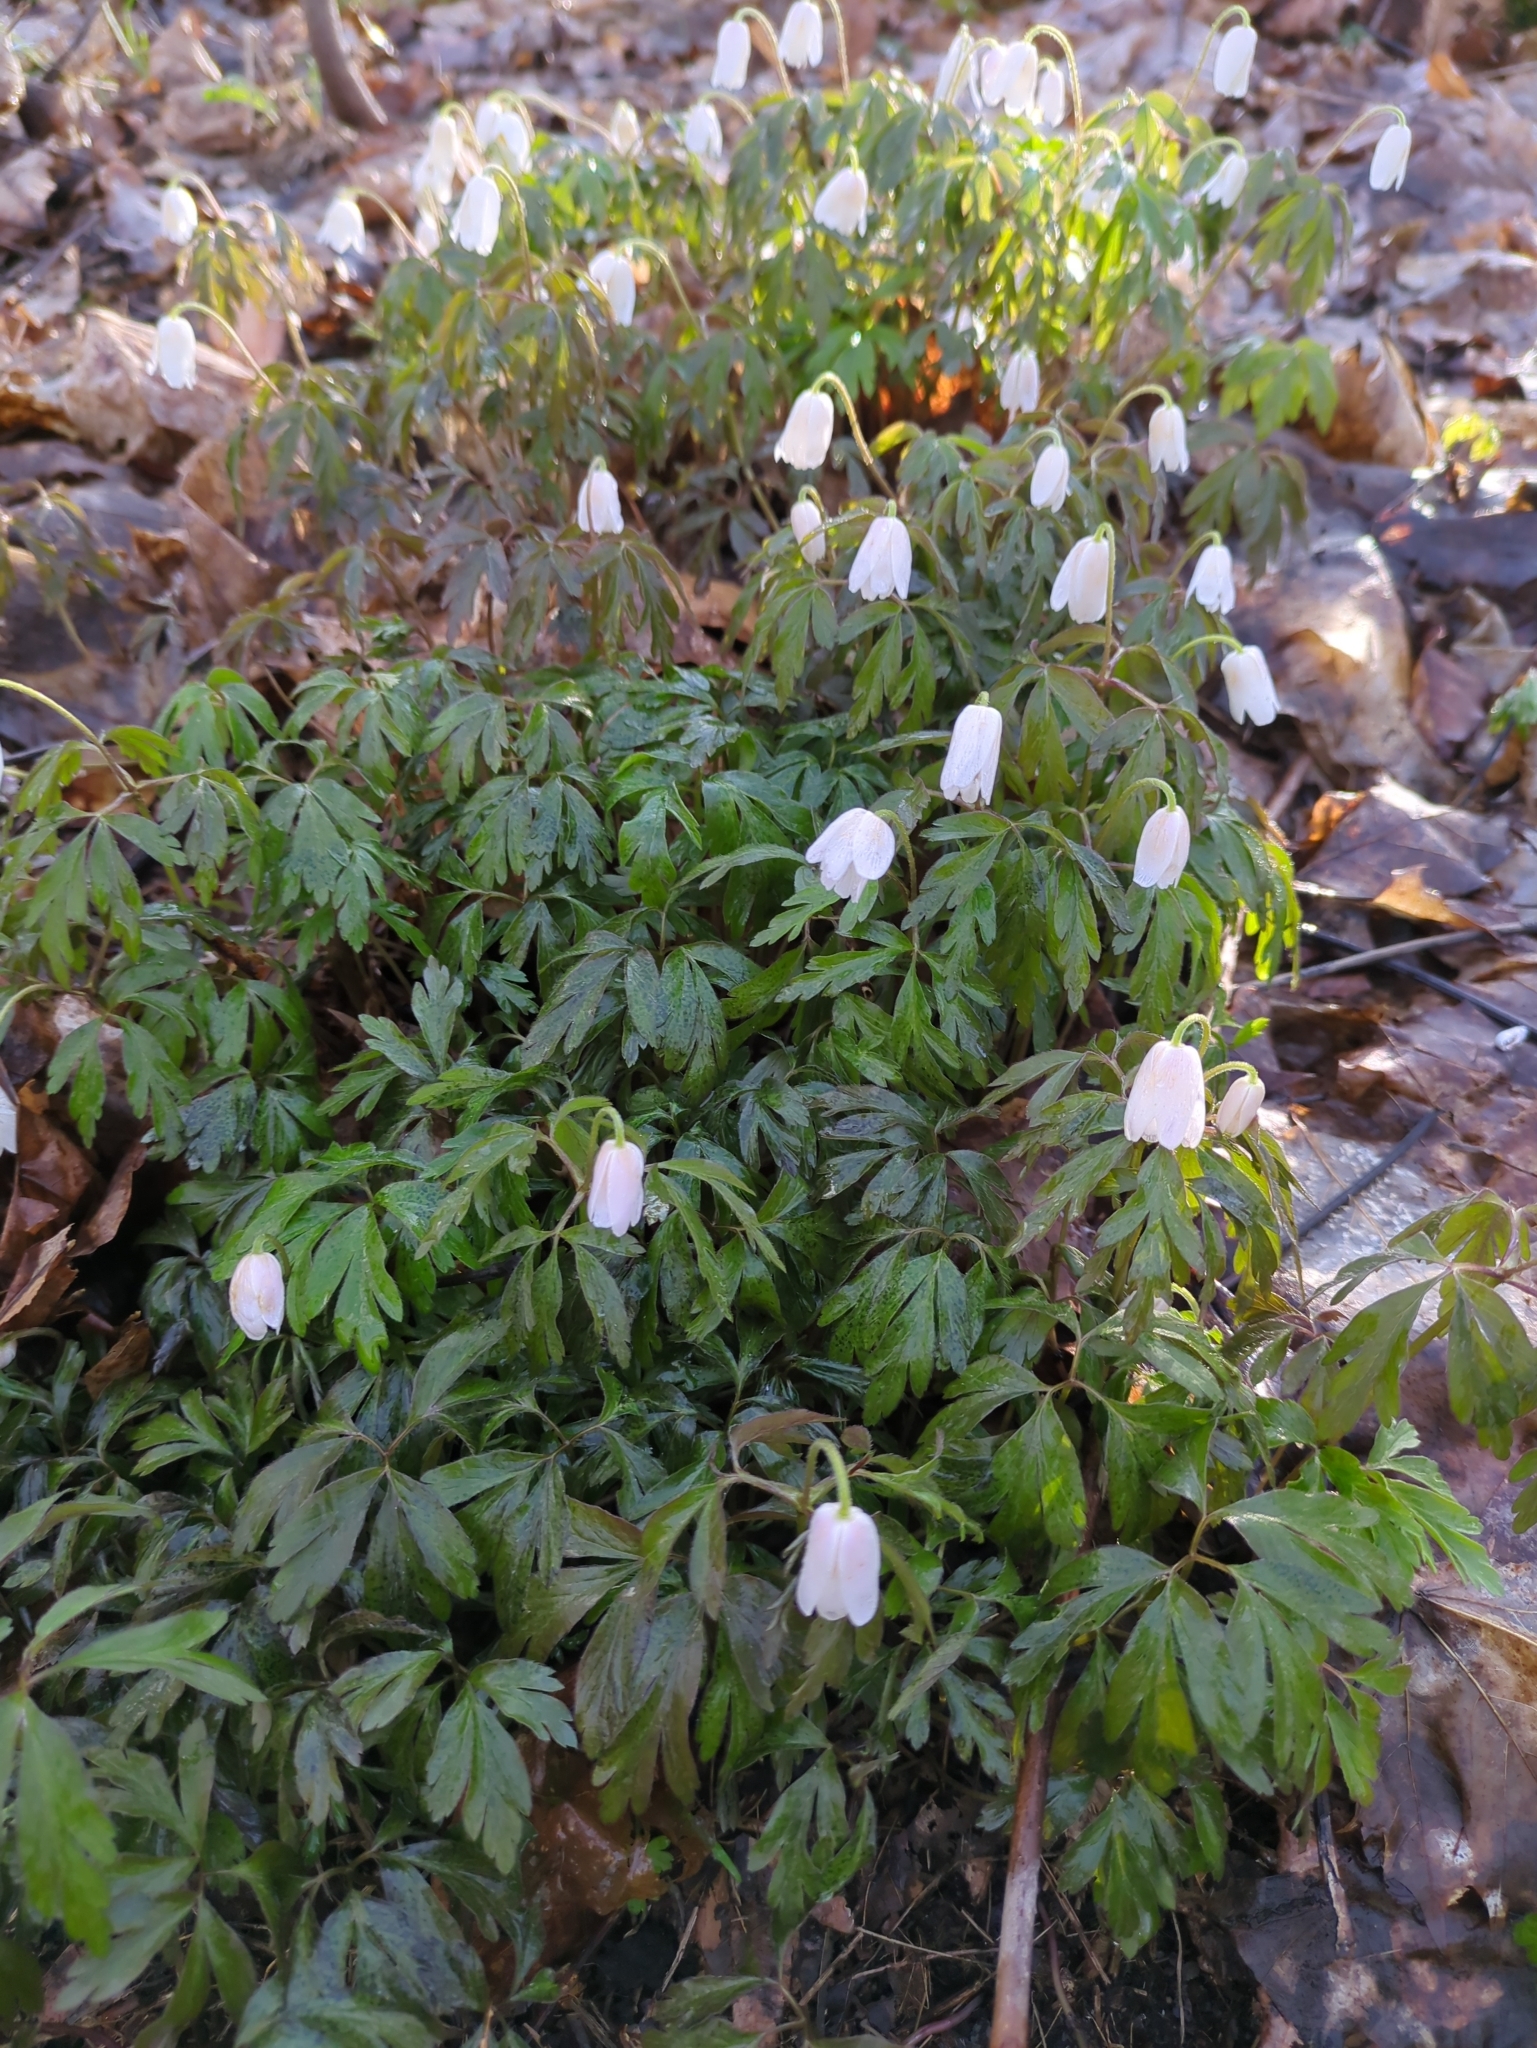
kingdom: Plantae
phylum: Tracheophyta
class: Magnoliopsida
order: Ranunculales
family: Ranunculaceae
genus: Anemone
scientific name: Anemone nemorosa
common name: Wood anemone
